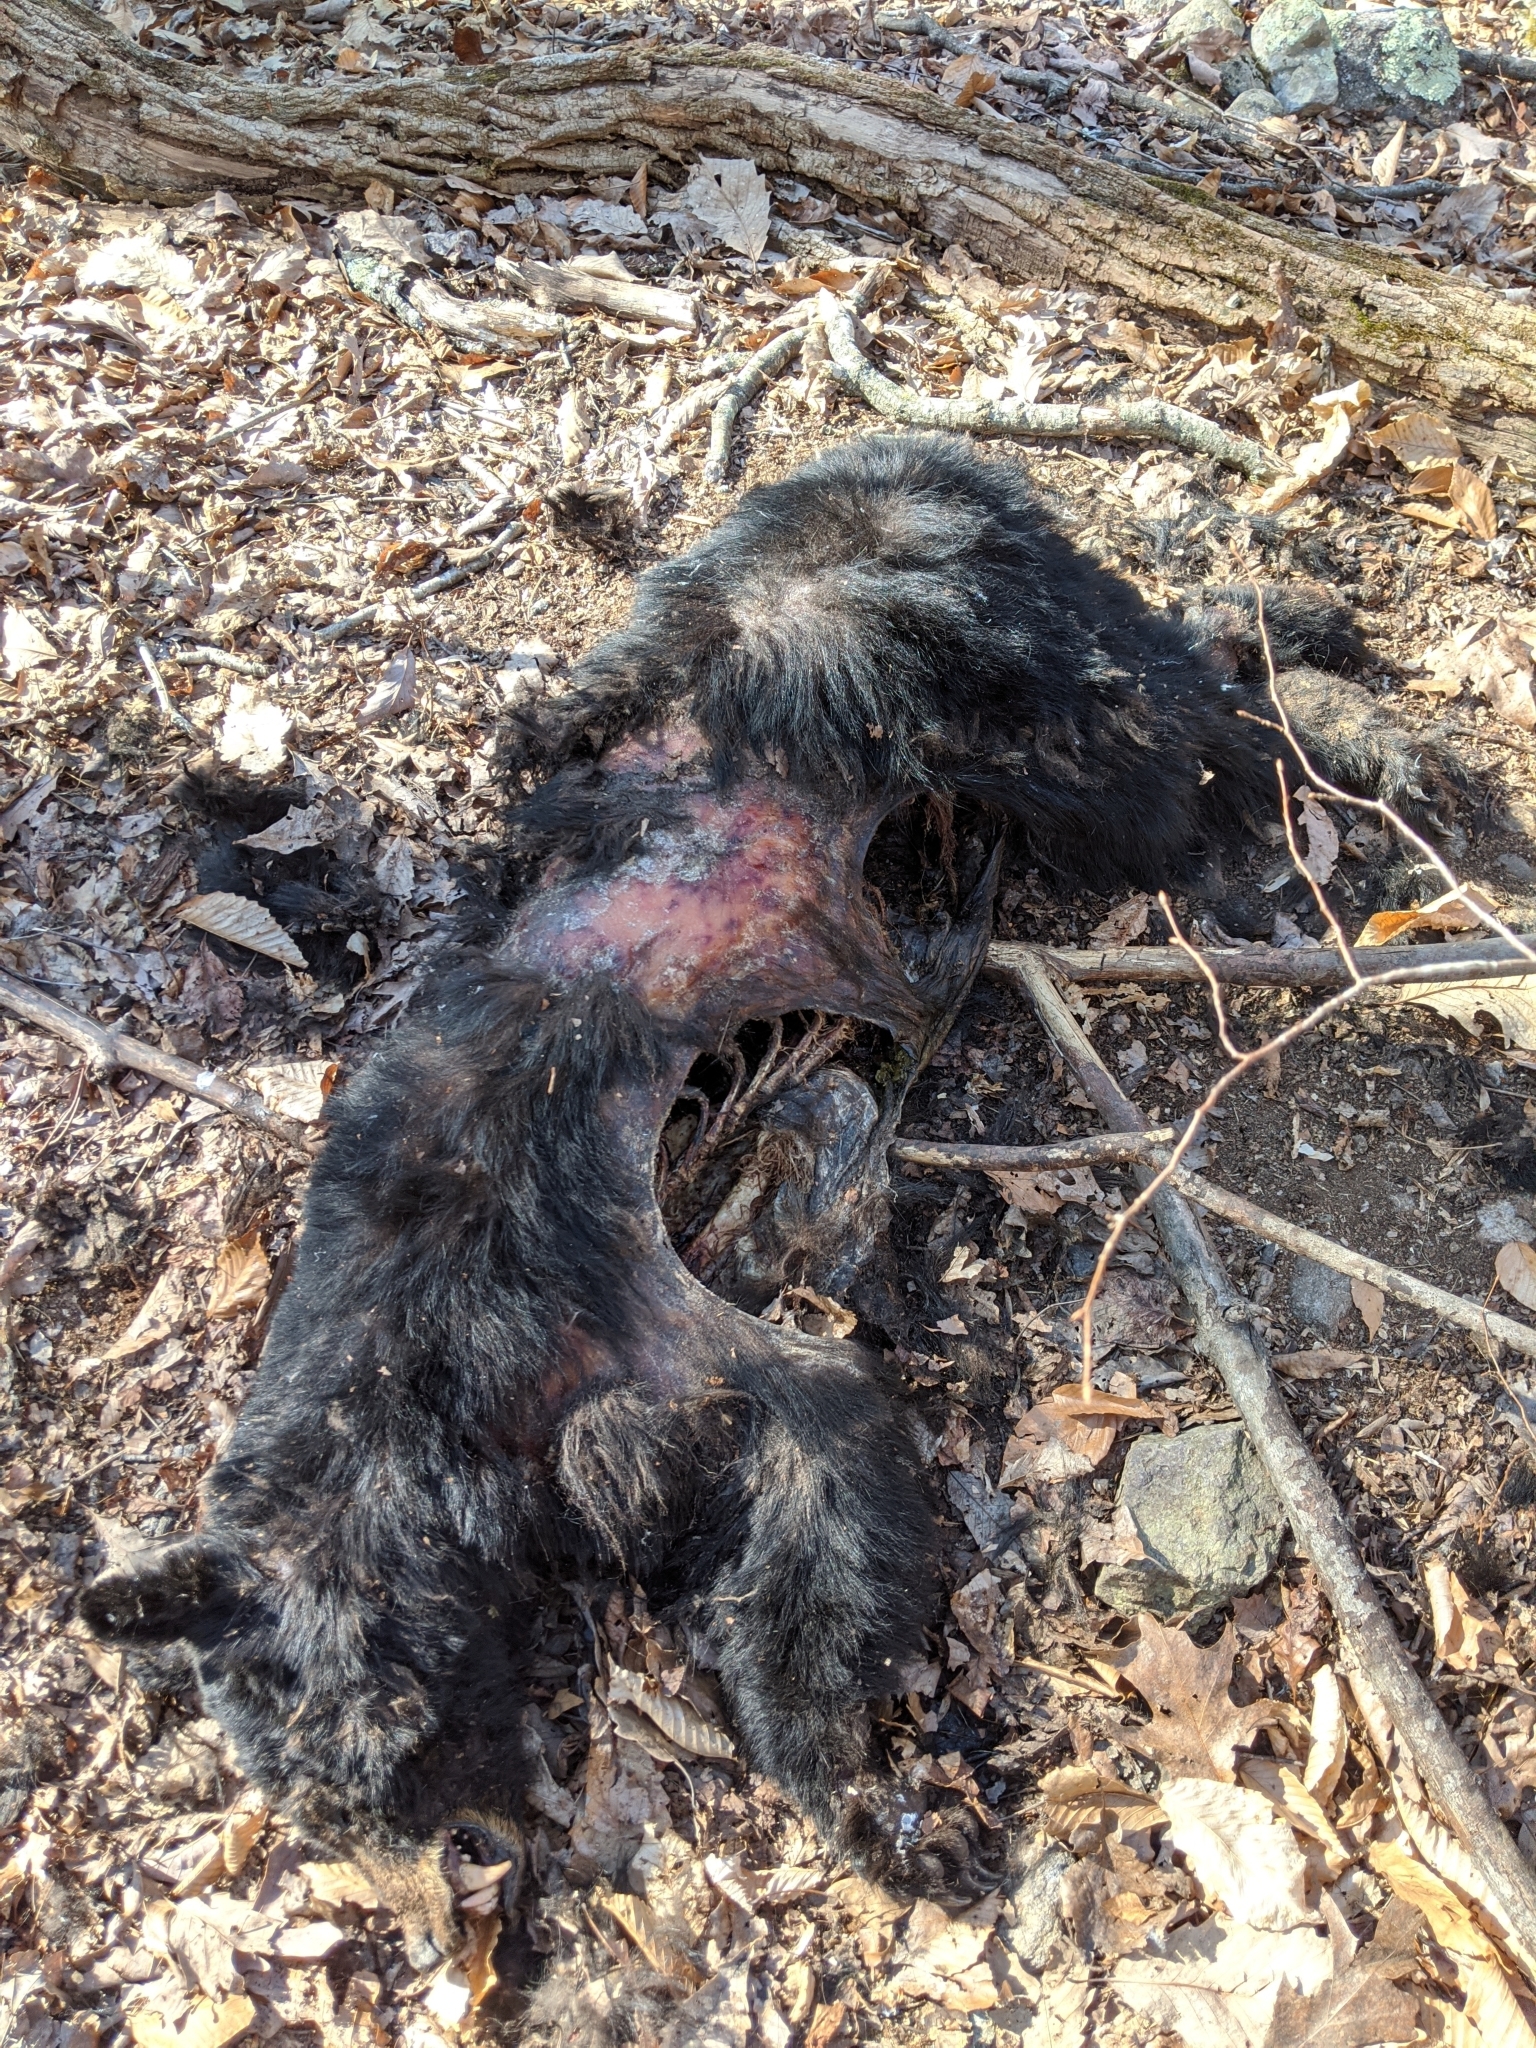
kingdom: Animalia
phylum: Chordata
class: Mammalia
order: Carnivora
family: Ursidae
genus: Ursus
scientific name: Ursus americanus
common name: American black bear
